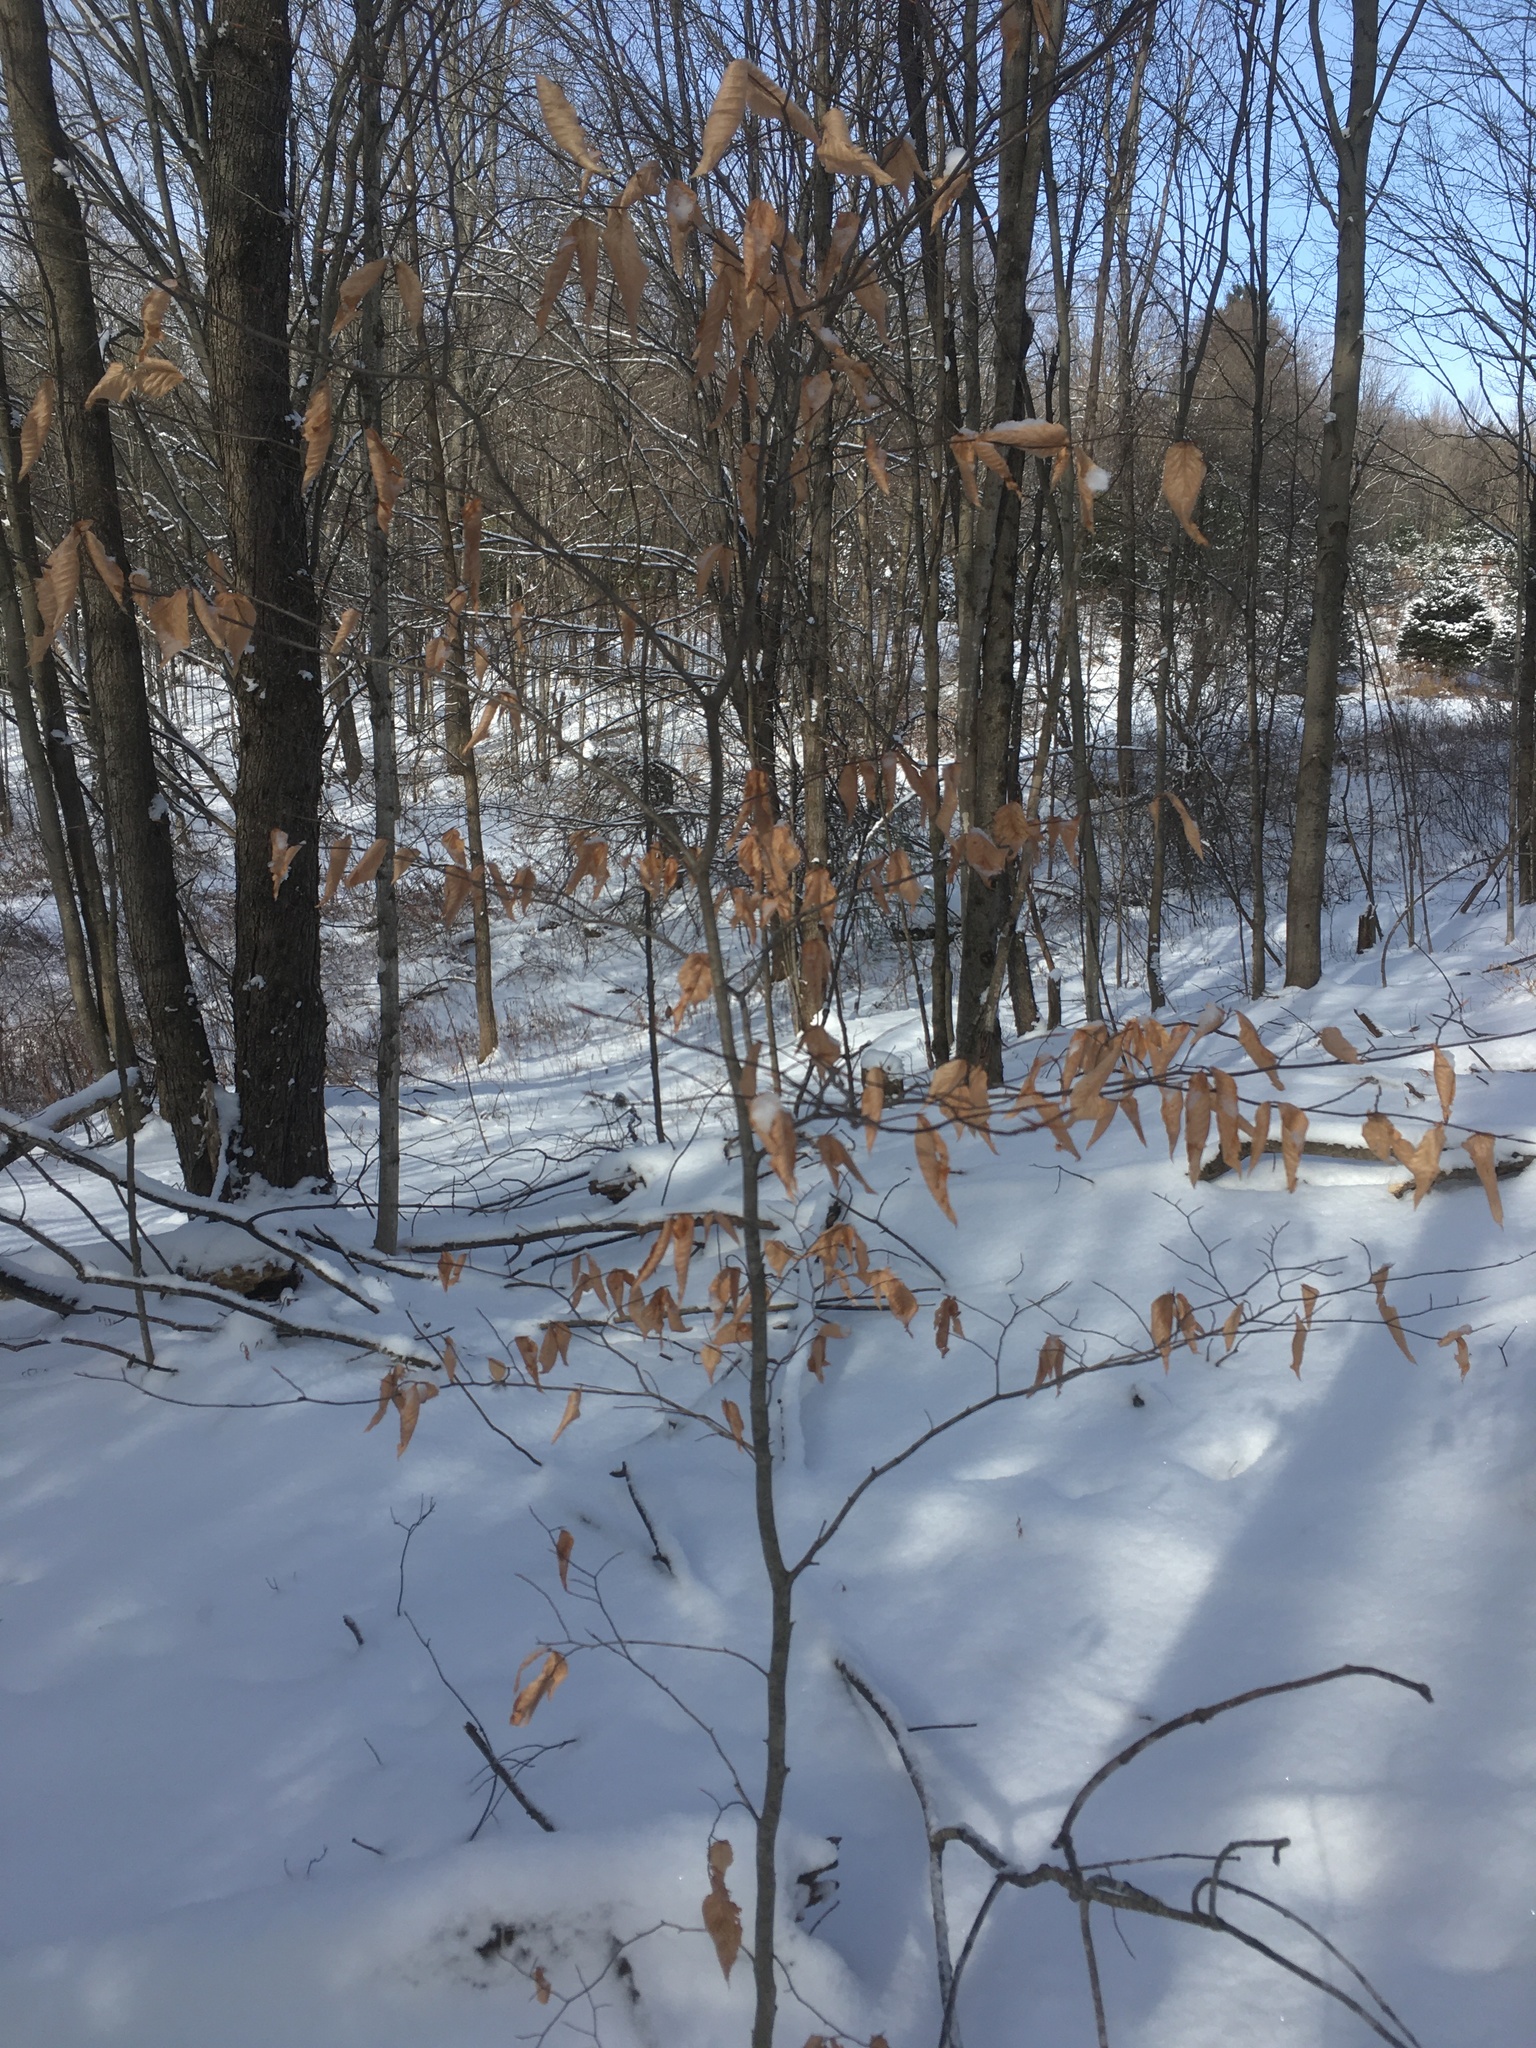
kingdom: Plantae
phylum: Tracheophyta
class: Magnoliopsida
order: Fagales
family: Fagaceae
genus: Fagus
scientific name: Fagus grandifolia
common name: American beech
